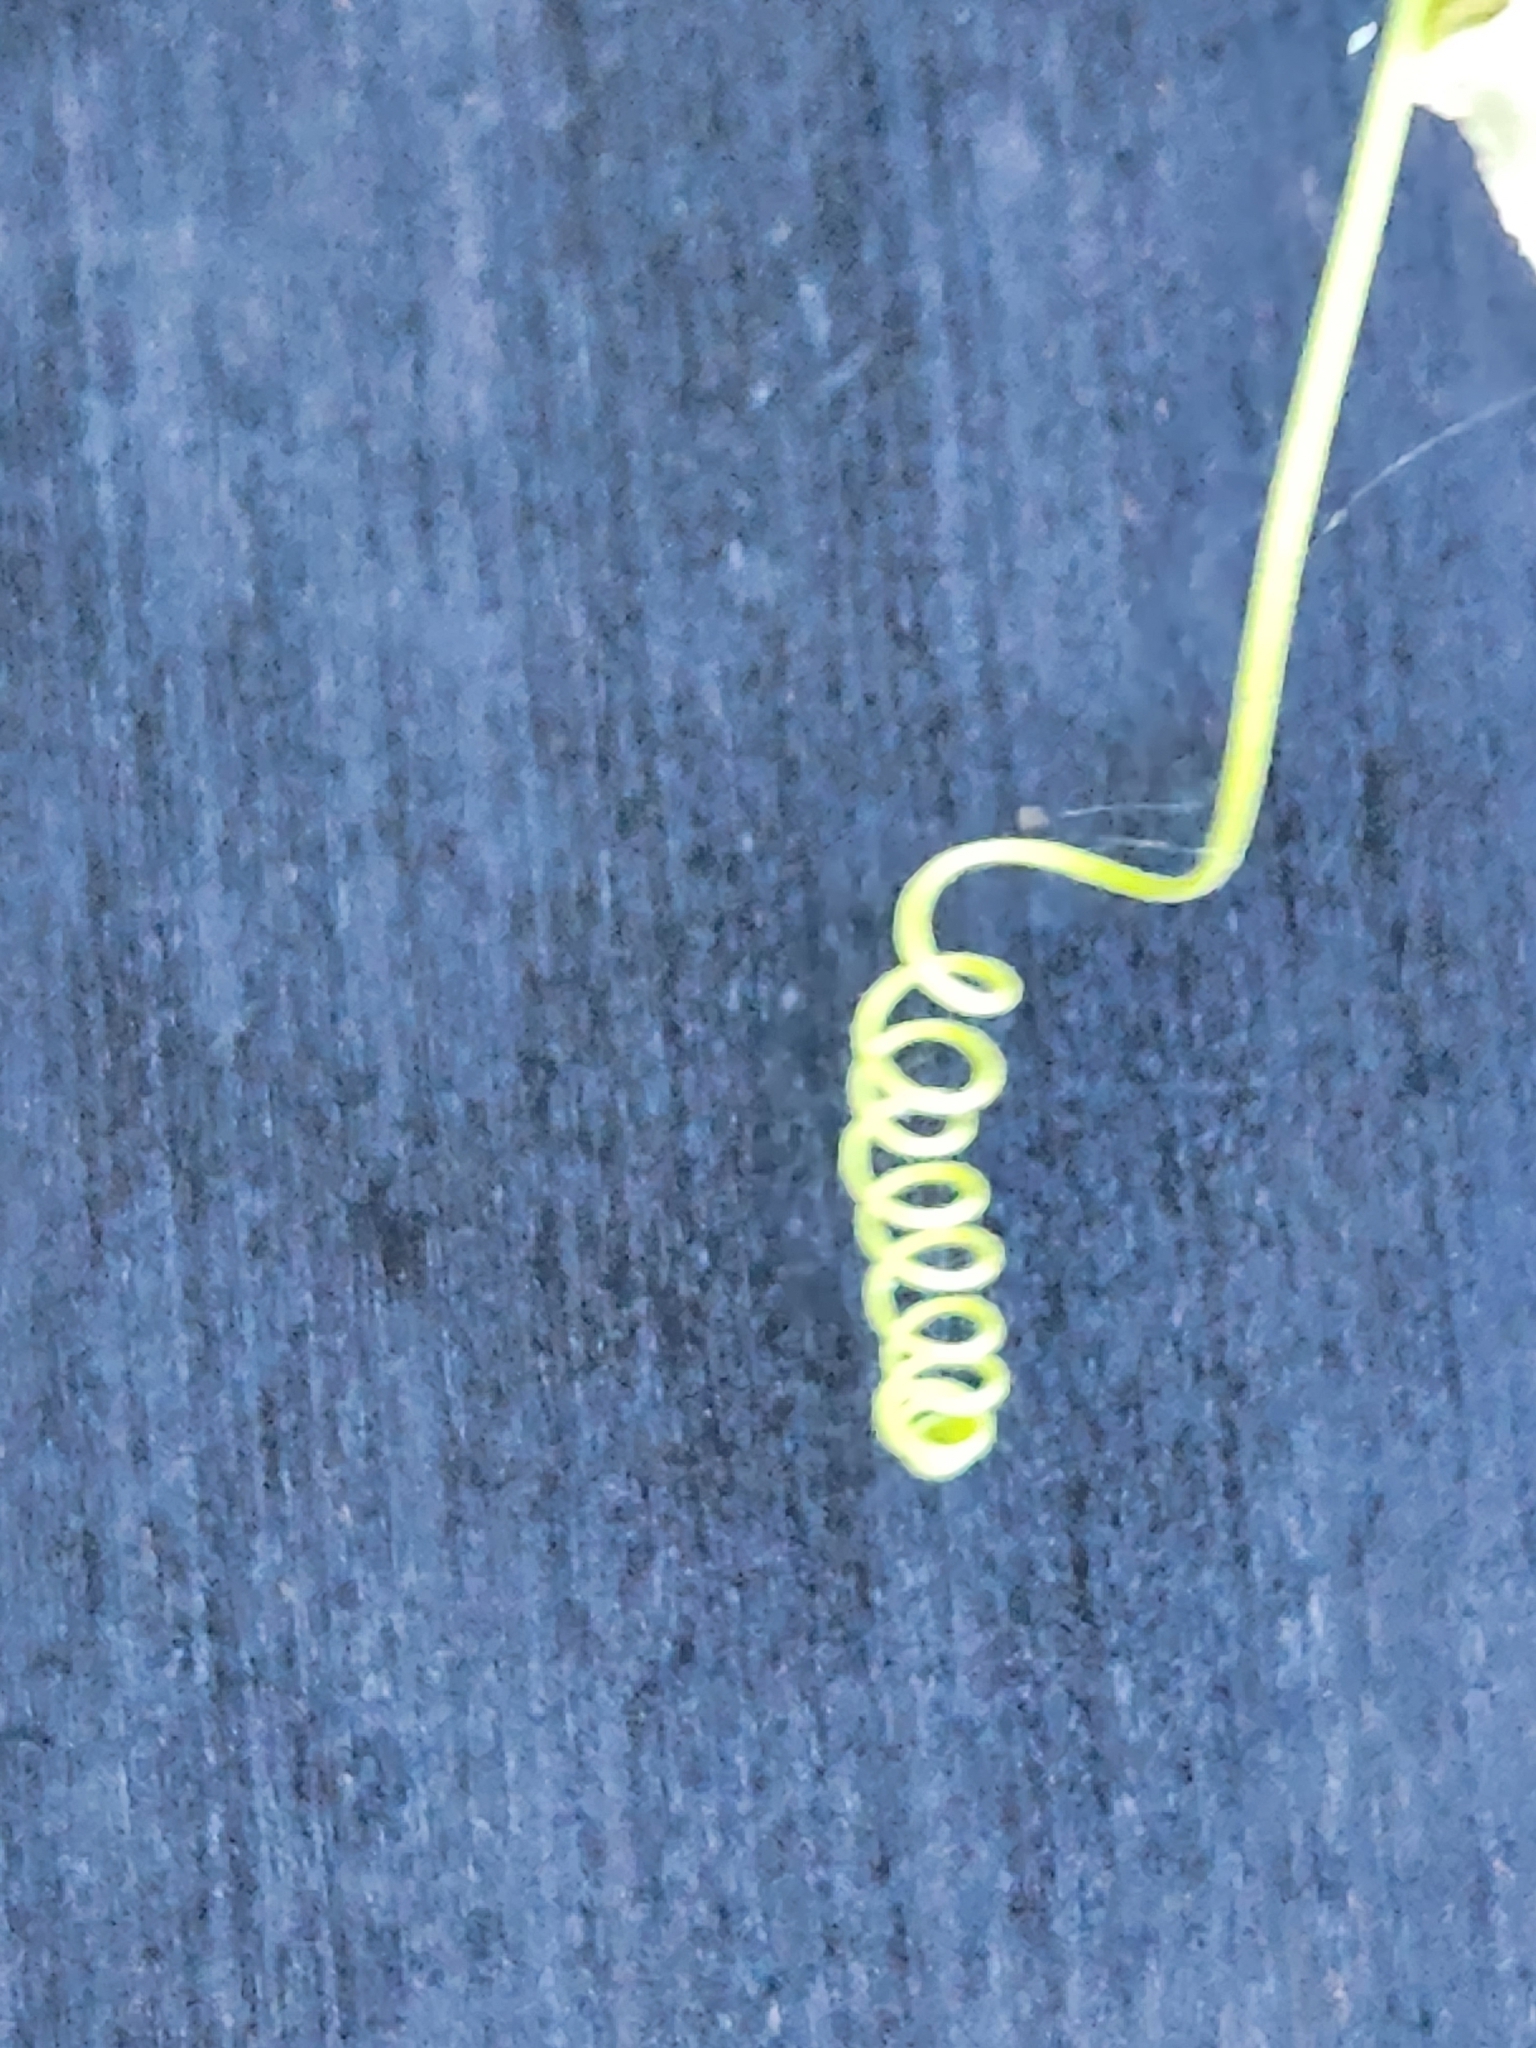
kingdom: Plantae
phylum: Tracheophyta
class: Magnoliopsida
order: Malpighiales
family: Passifloraceae
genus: Passiflora
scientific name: Passiflora incarnata
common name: Apricot-vine
